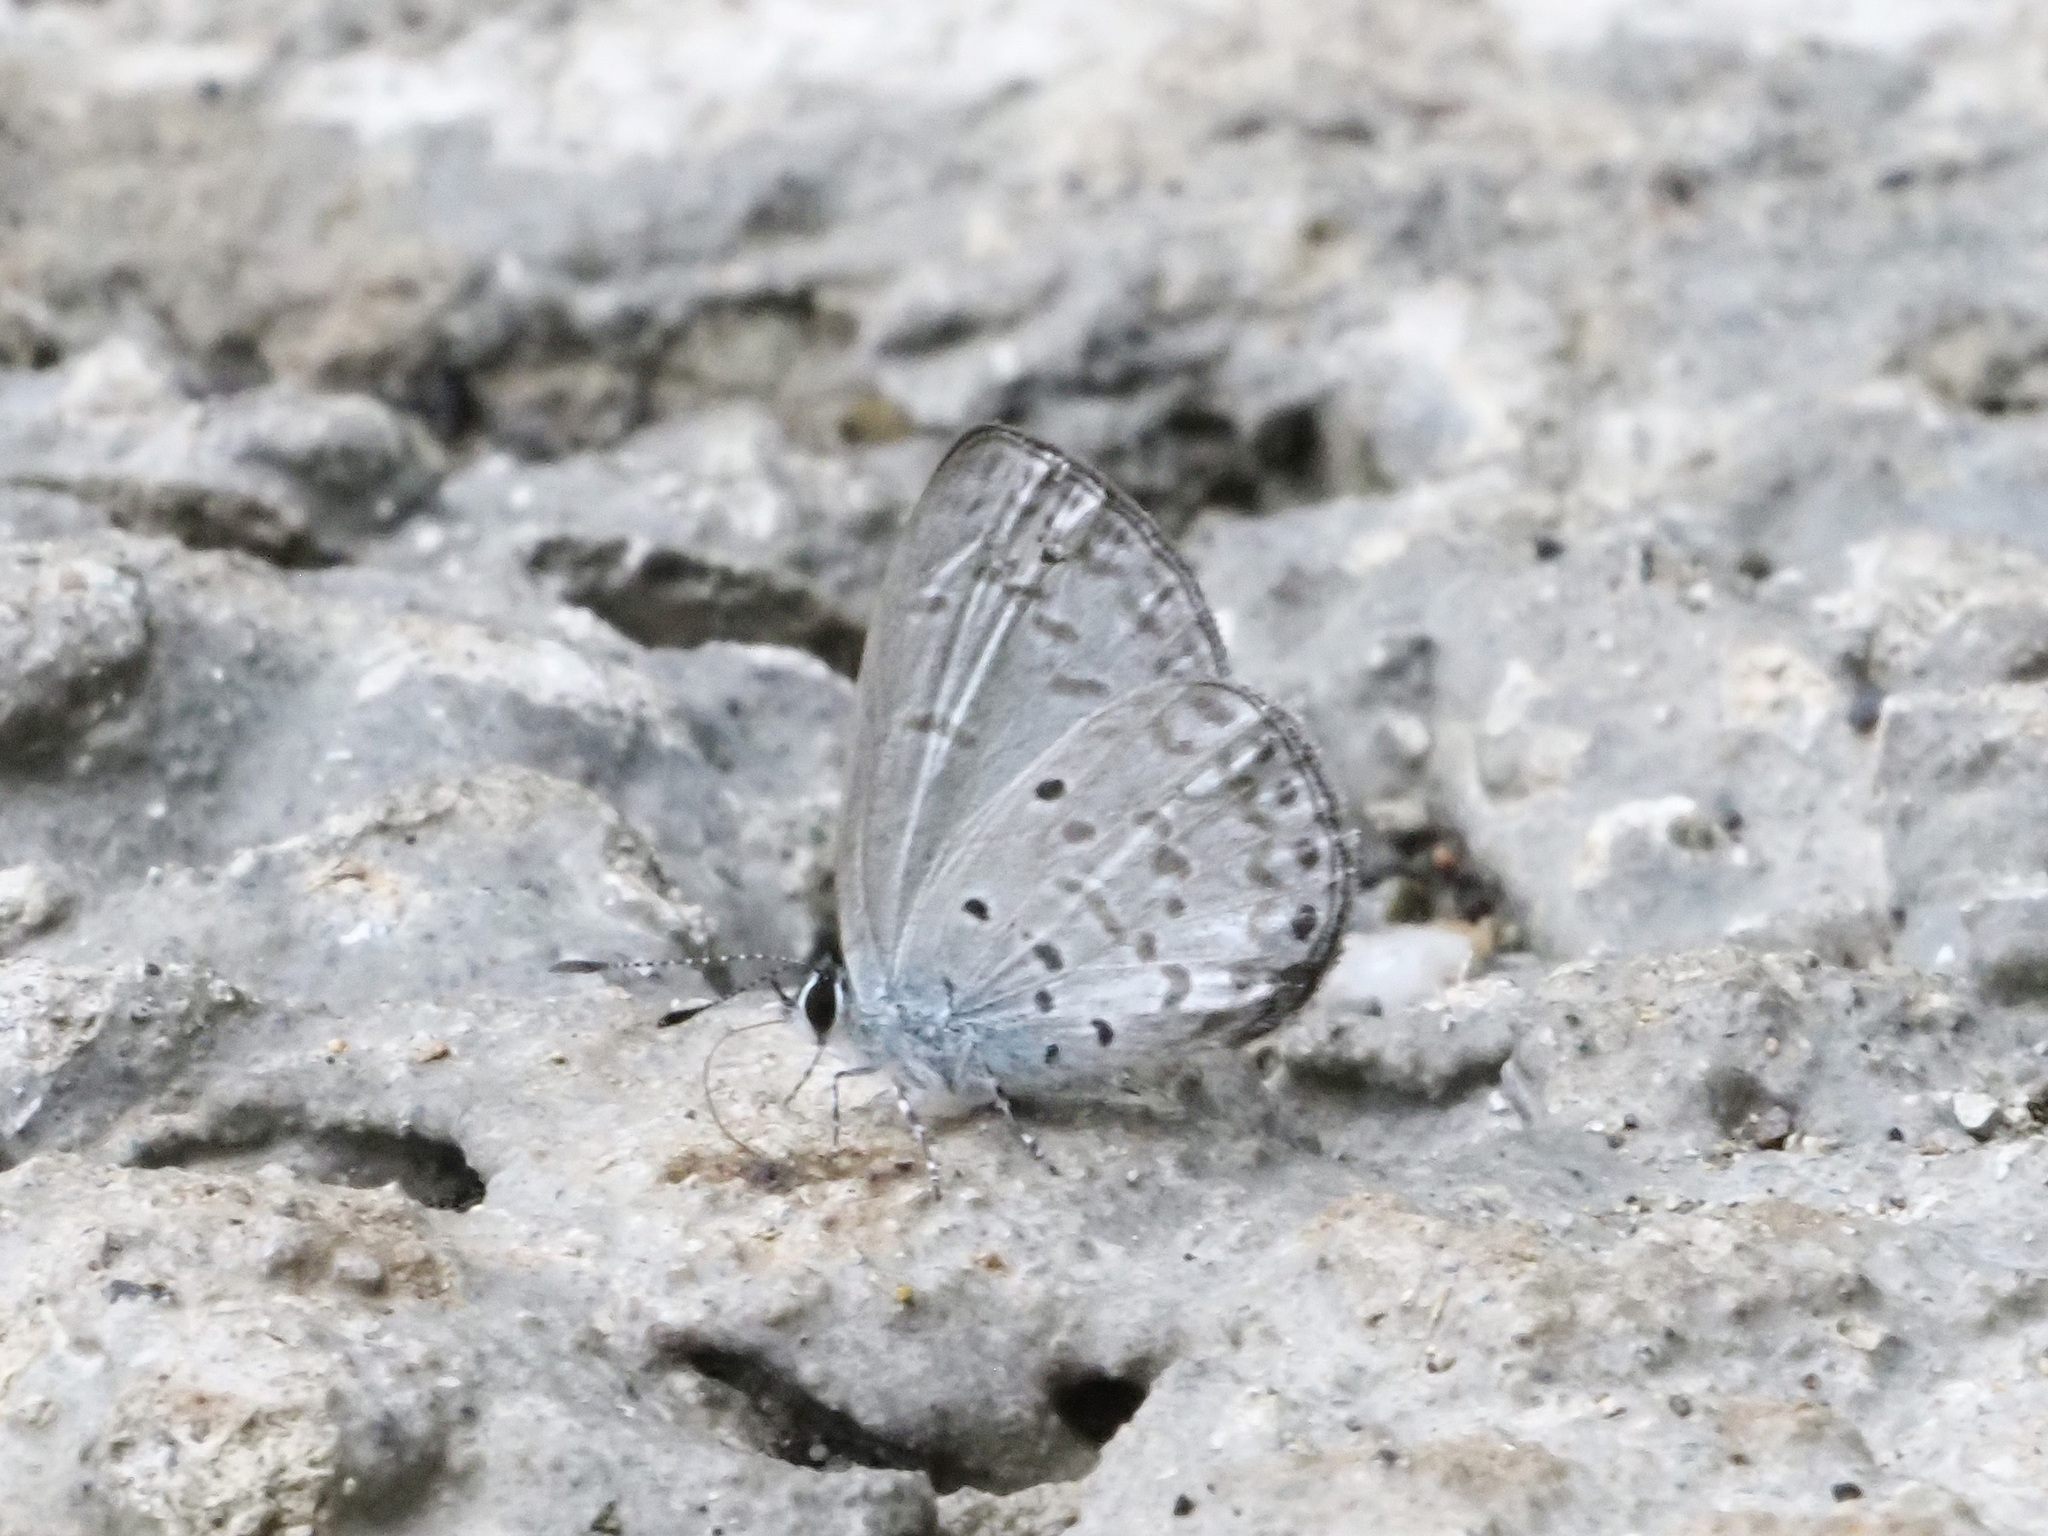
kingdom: Animalia
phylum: Arthropoda
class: Insecta
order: Lepidoptera
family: Lycaenidae
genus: Monodontides
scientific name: Monodontides
